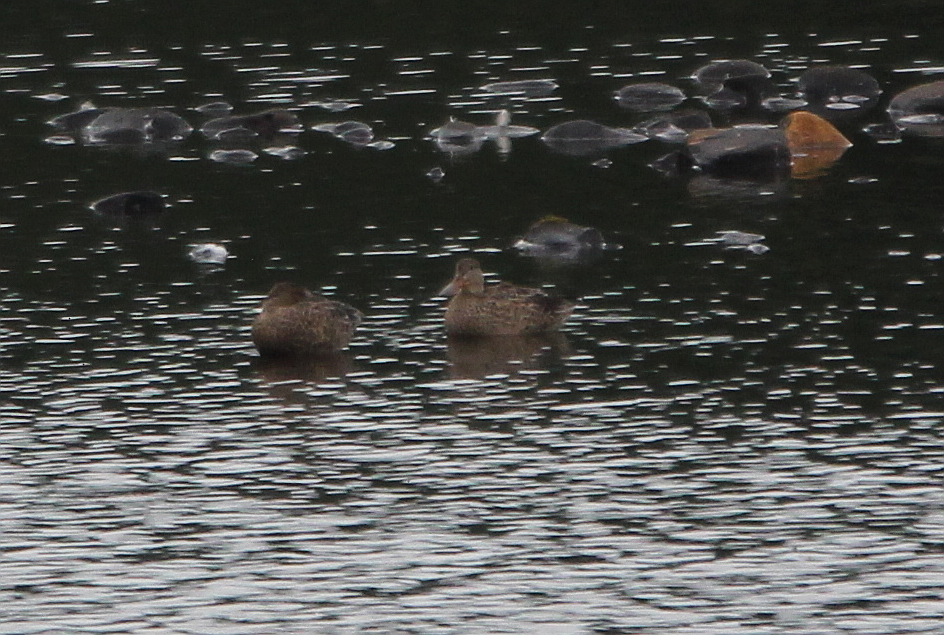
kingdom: Animalia
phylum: Chordata
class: Aves
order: Anseriformes
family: Anatidae
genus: Spatula
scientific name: Spatula clypeata
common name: Northern shoveler
